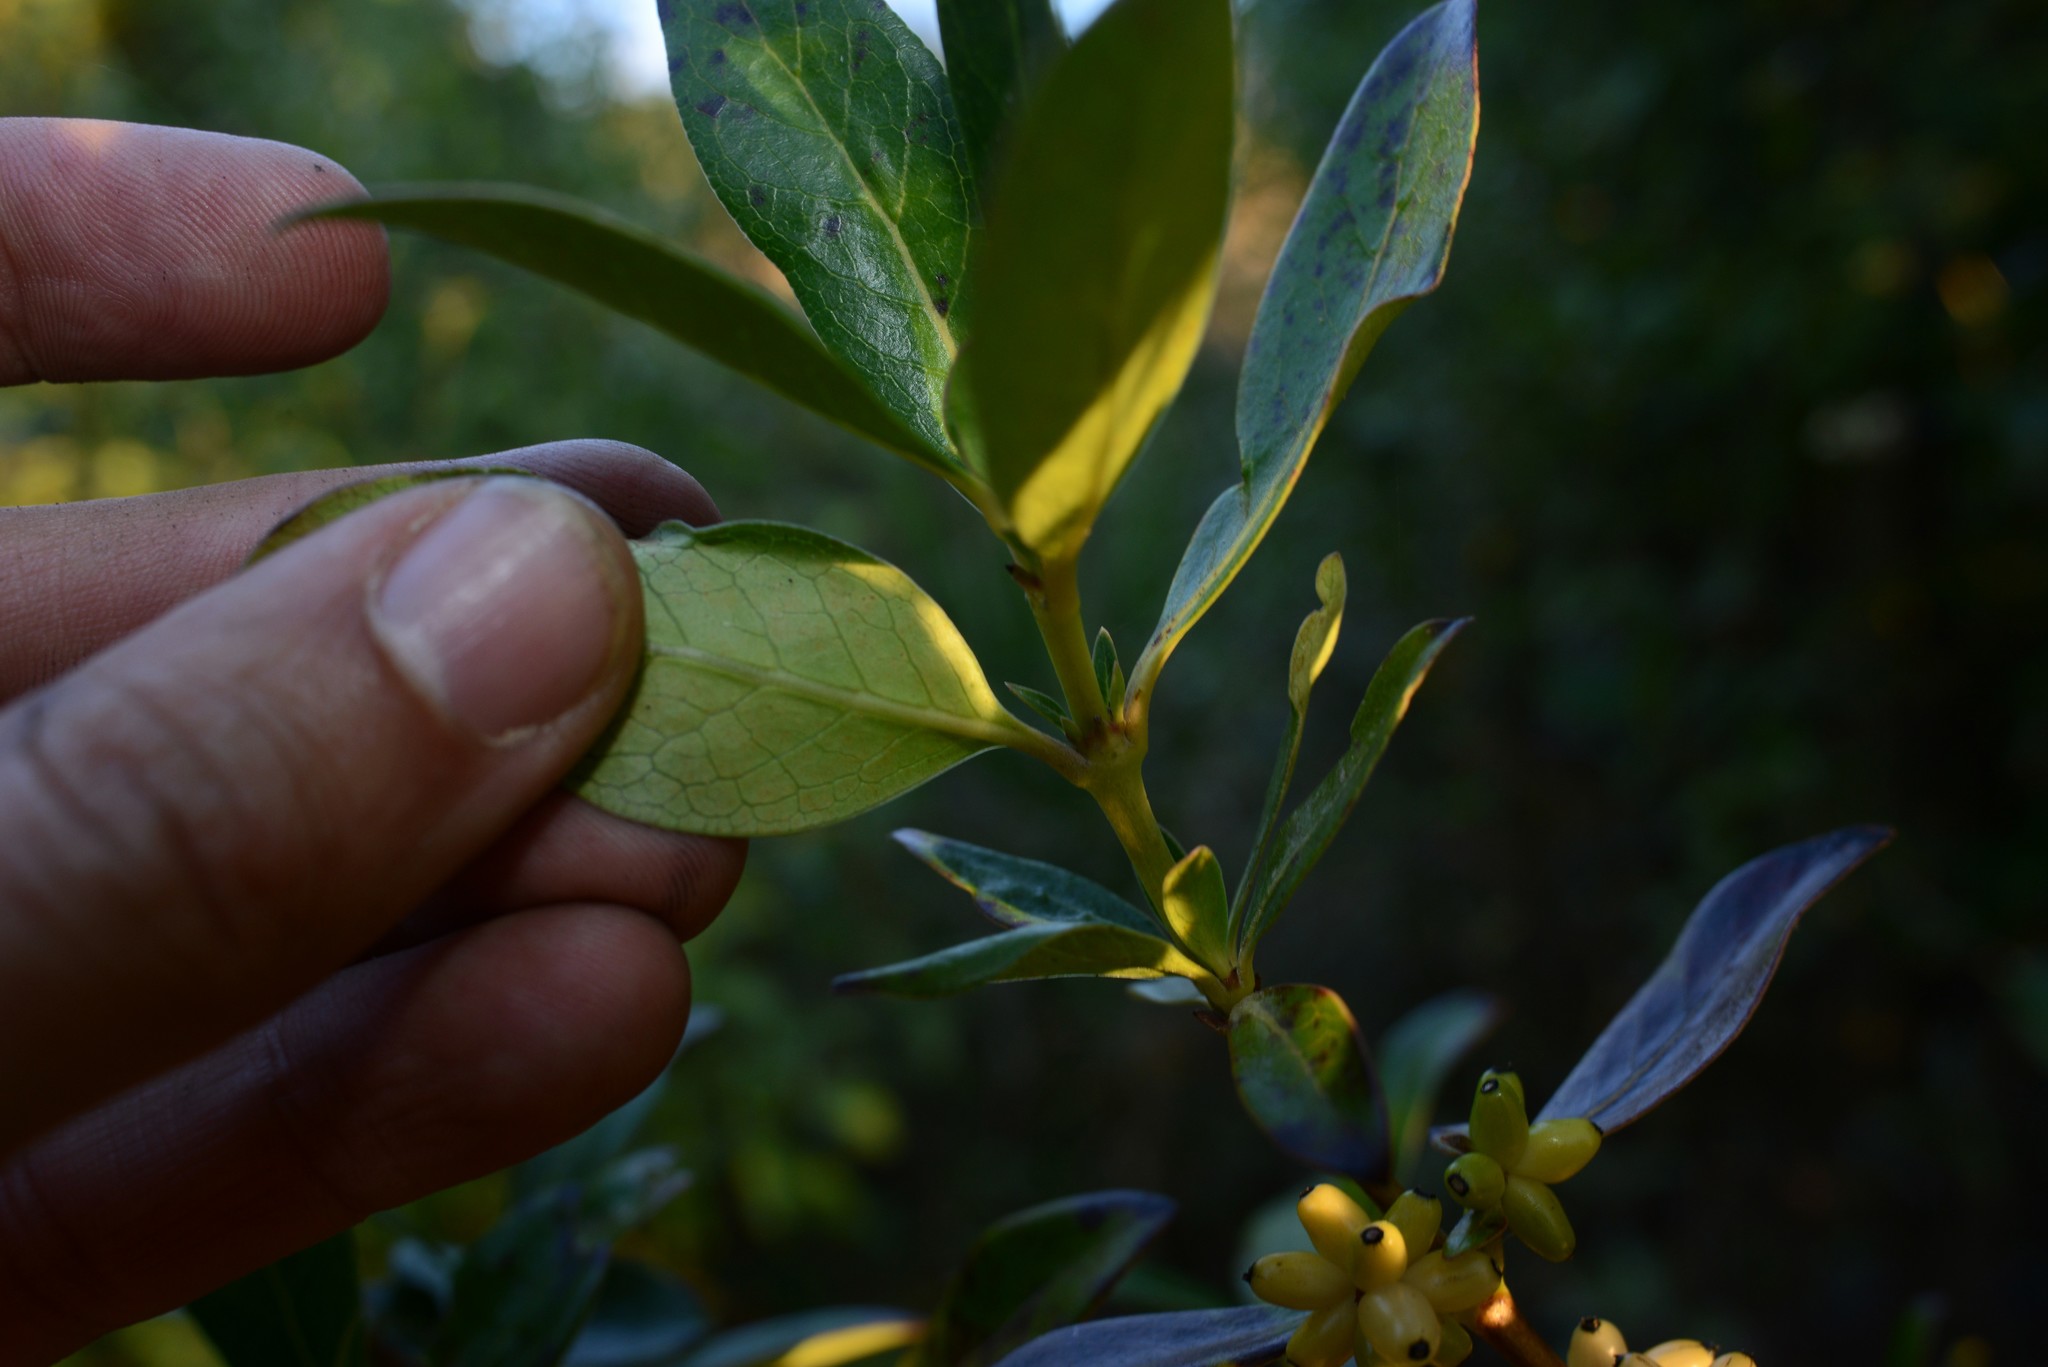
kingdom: Plantae
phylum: Tracheophyta
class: Magnoliopsida
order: Gentianales
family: Rubiaceae
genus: Coprosma
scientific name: Coprosma robusta
